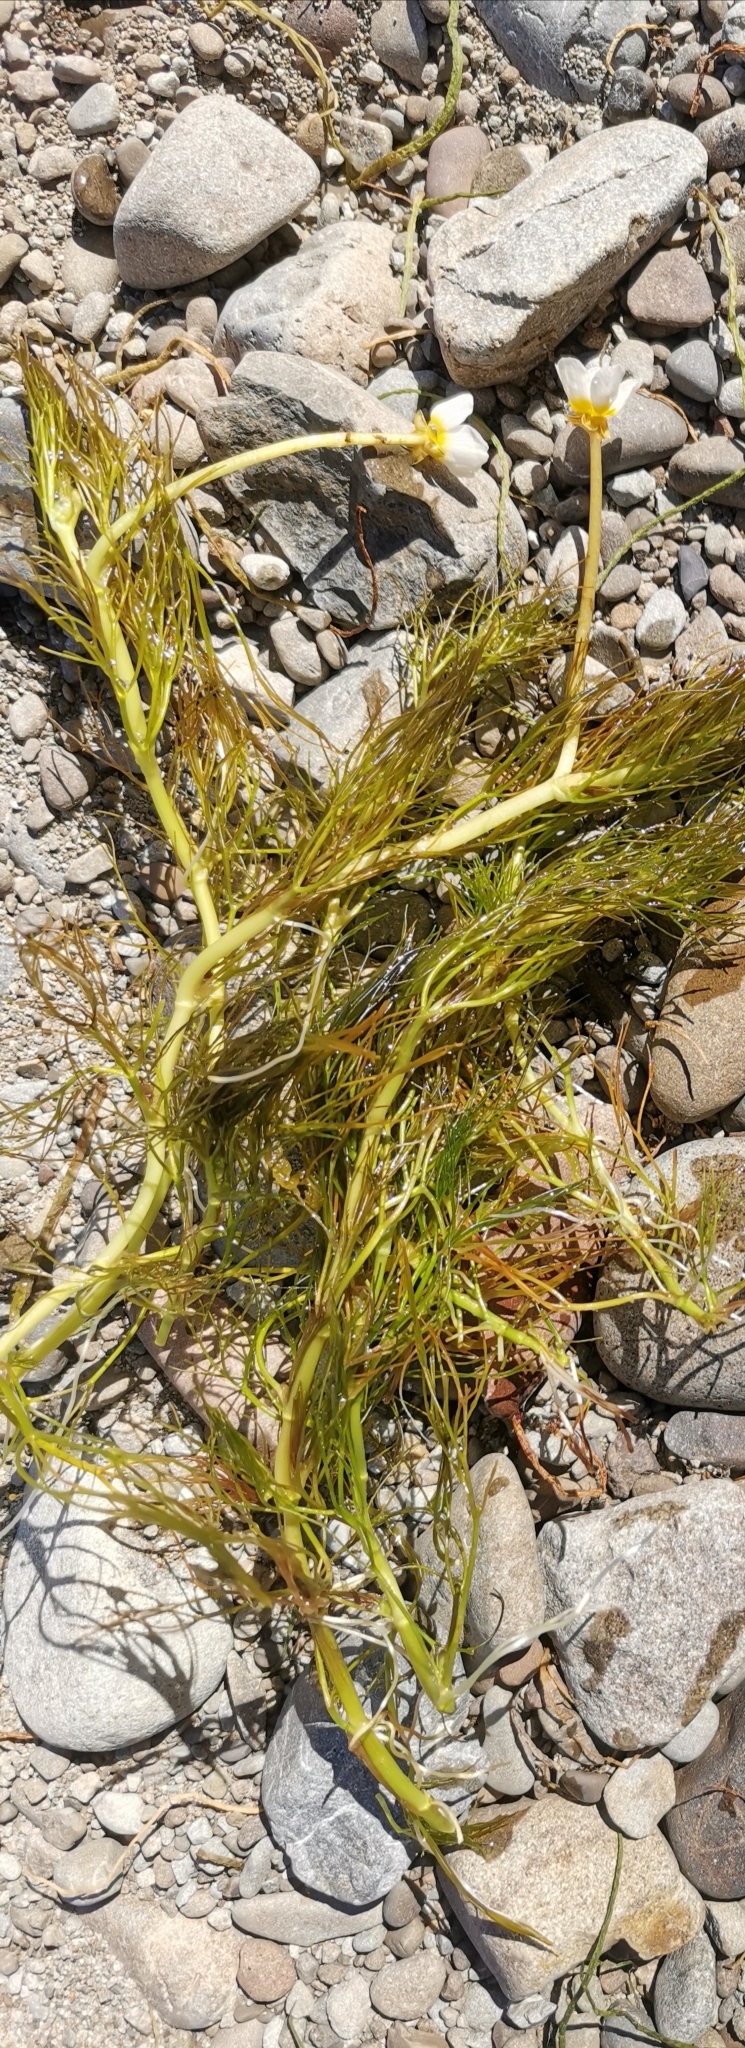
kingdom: Plantae
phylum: Tracheophyta
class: Magnoliopsida
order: Ranunculales
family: Ranunculaceae
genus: Ranunculus
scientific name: Ranunculus trichophyllus
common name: Thread-leaved water-crowfoot
